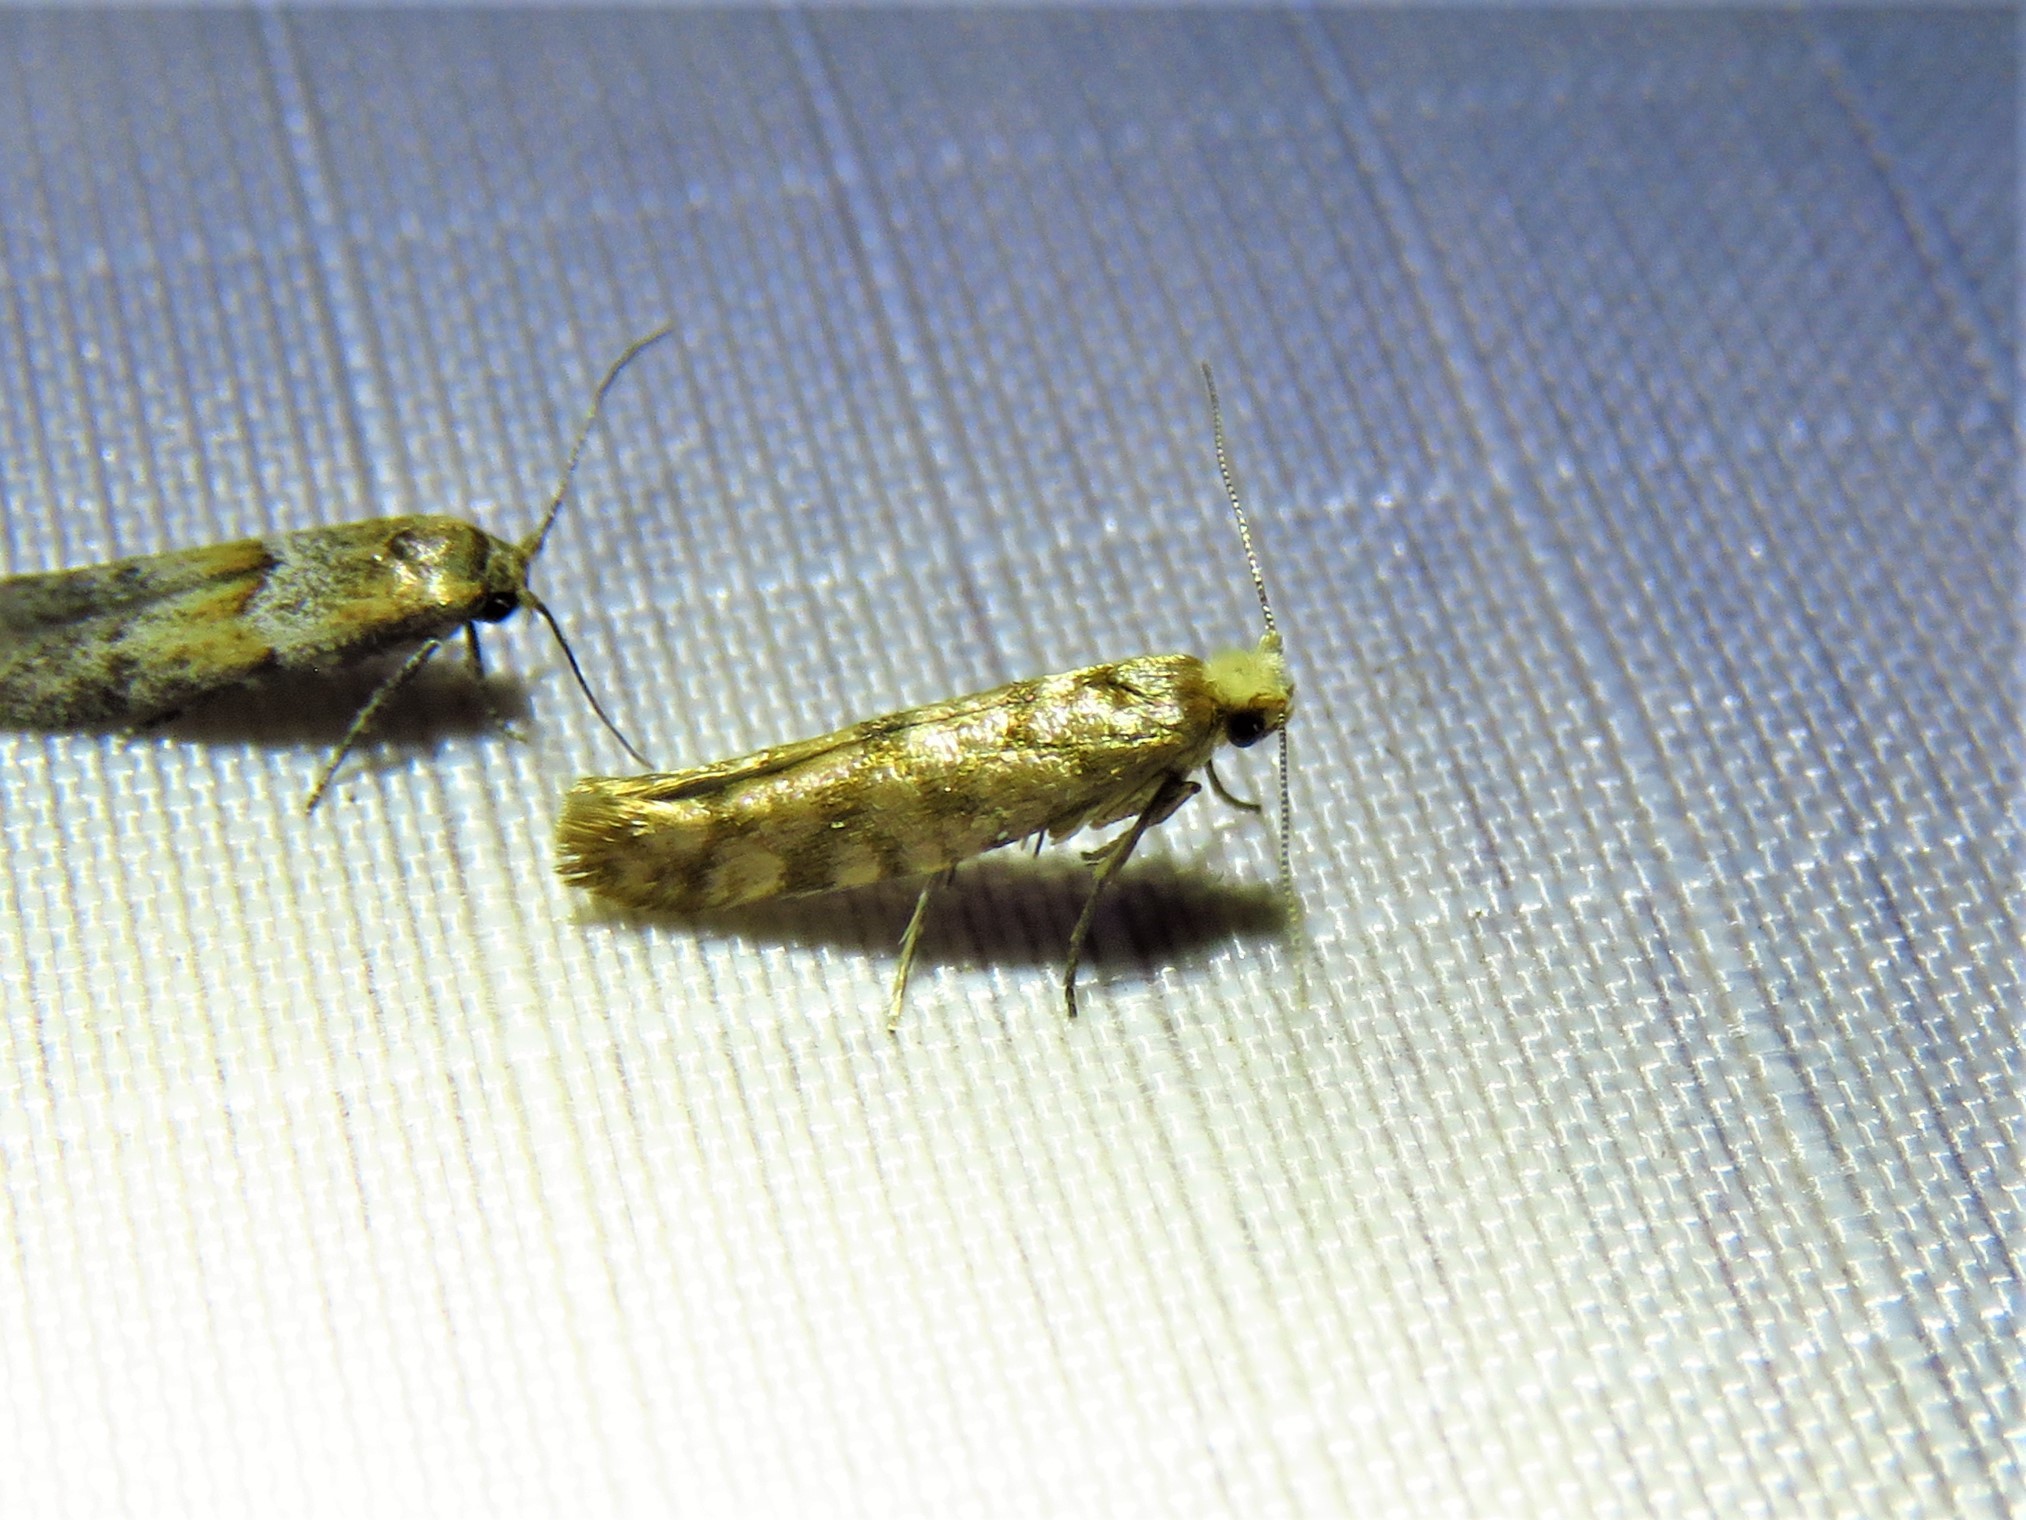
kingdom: Animalia
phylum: Arthropoda
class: Insecta
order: Lepidoptera
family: Argyresthiidae
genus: Argyresthia
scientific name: Argyresthia alternatella
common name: Juniper seed moth
